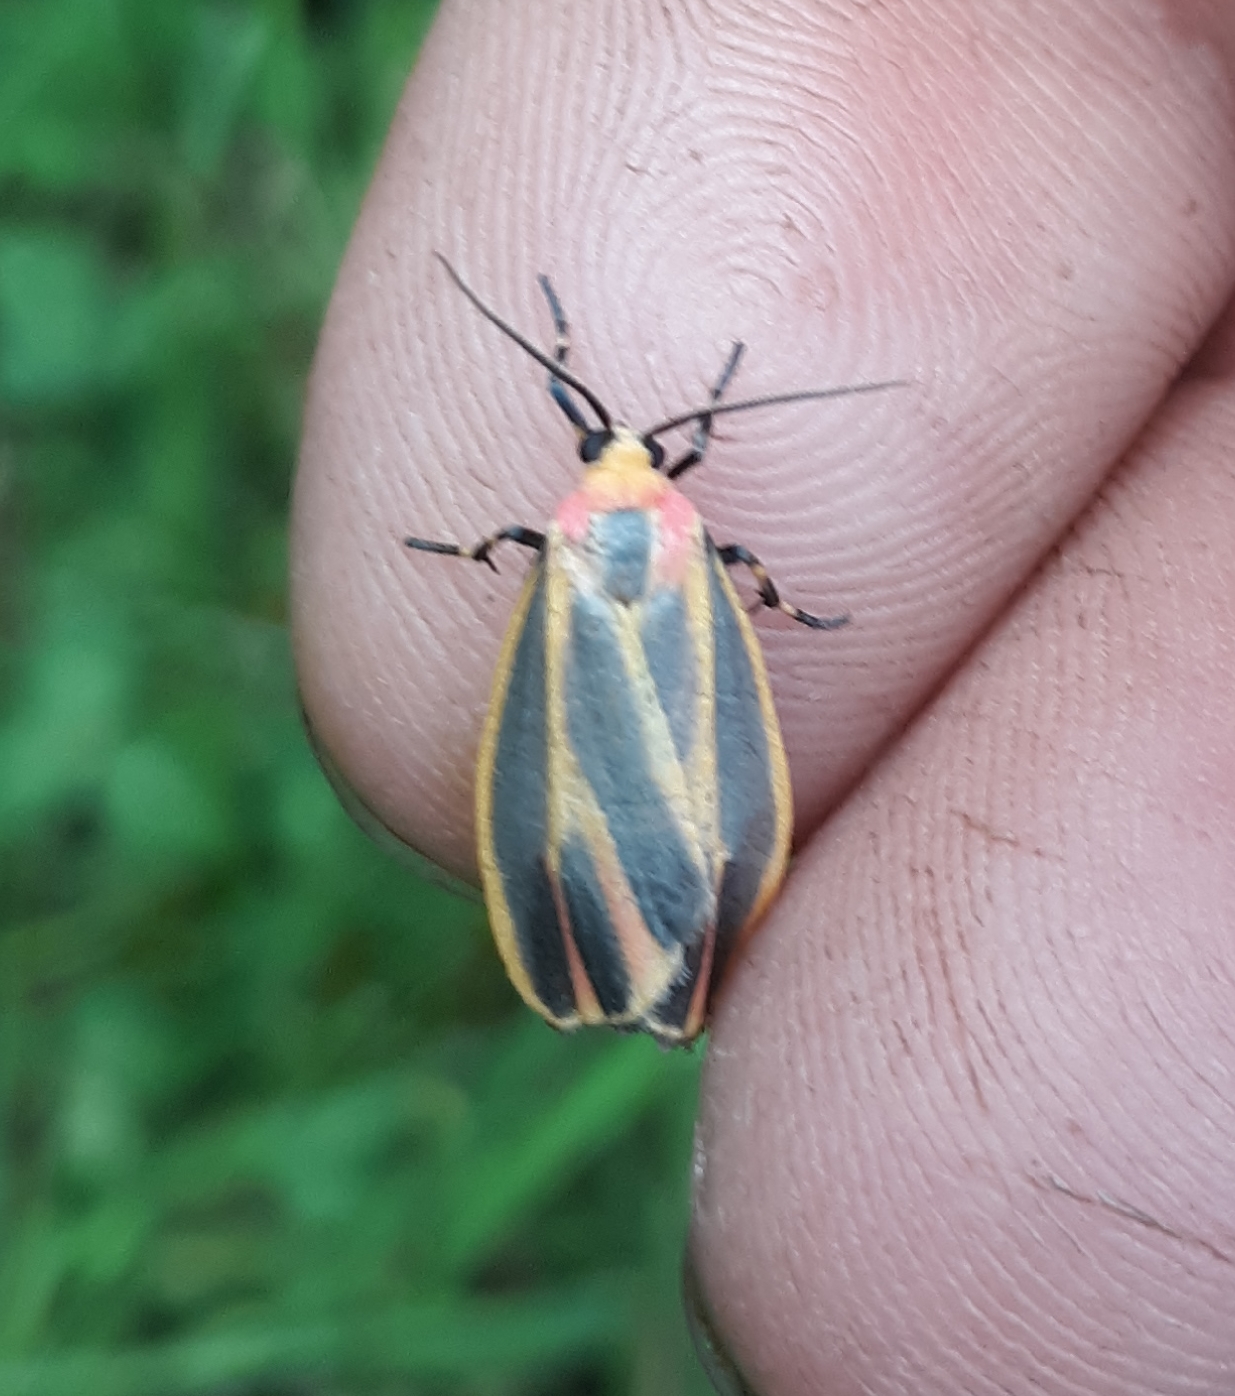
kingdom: Animalia
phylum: Arthropoda
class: Insecta
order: Lepidoptera
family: Erebidae
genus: Hypoprepia
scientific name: Hypoprepia fucosa
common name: Painted lichen moth
